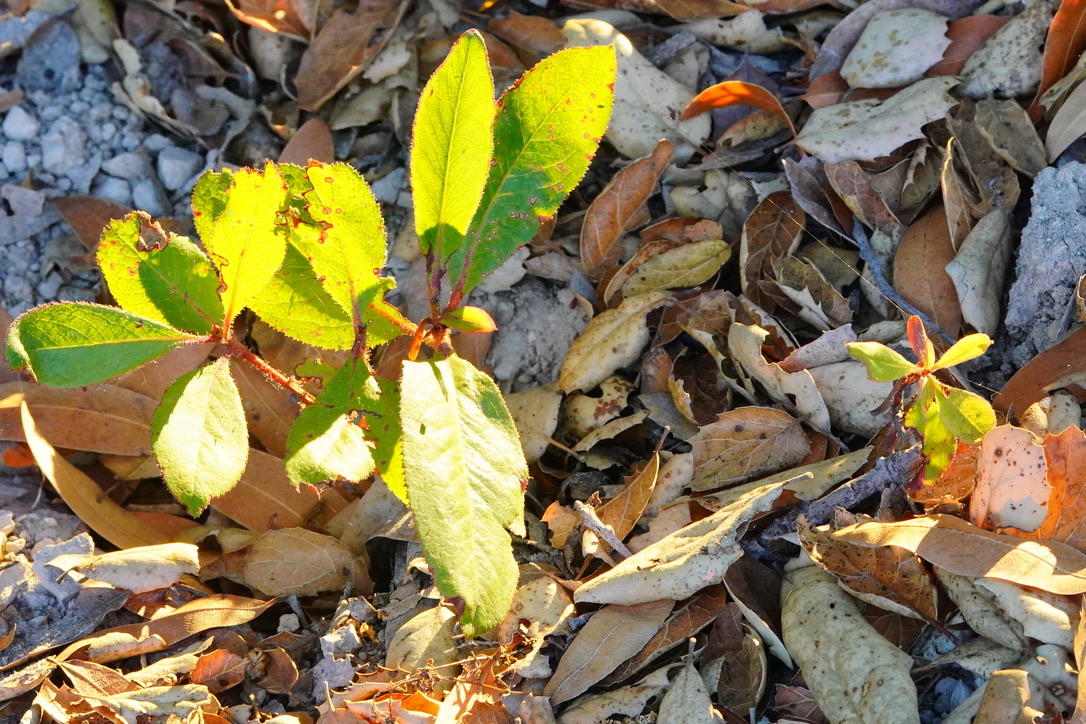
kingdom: Plantae
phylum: Tracheophyta
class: Magnoliopsida
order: Ericales
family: Ericaceae
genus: Arbutus
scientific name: Arbutus menziesii
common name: Pacific madrone
